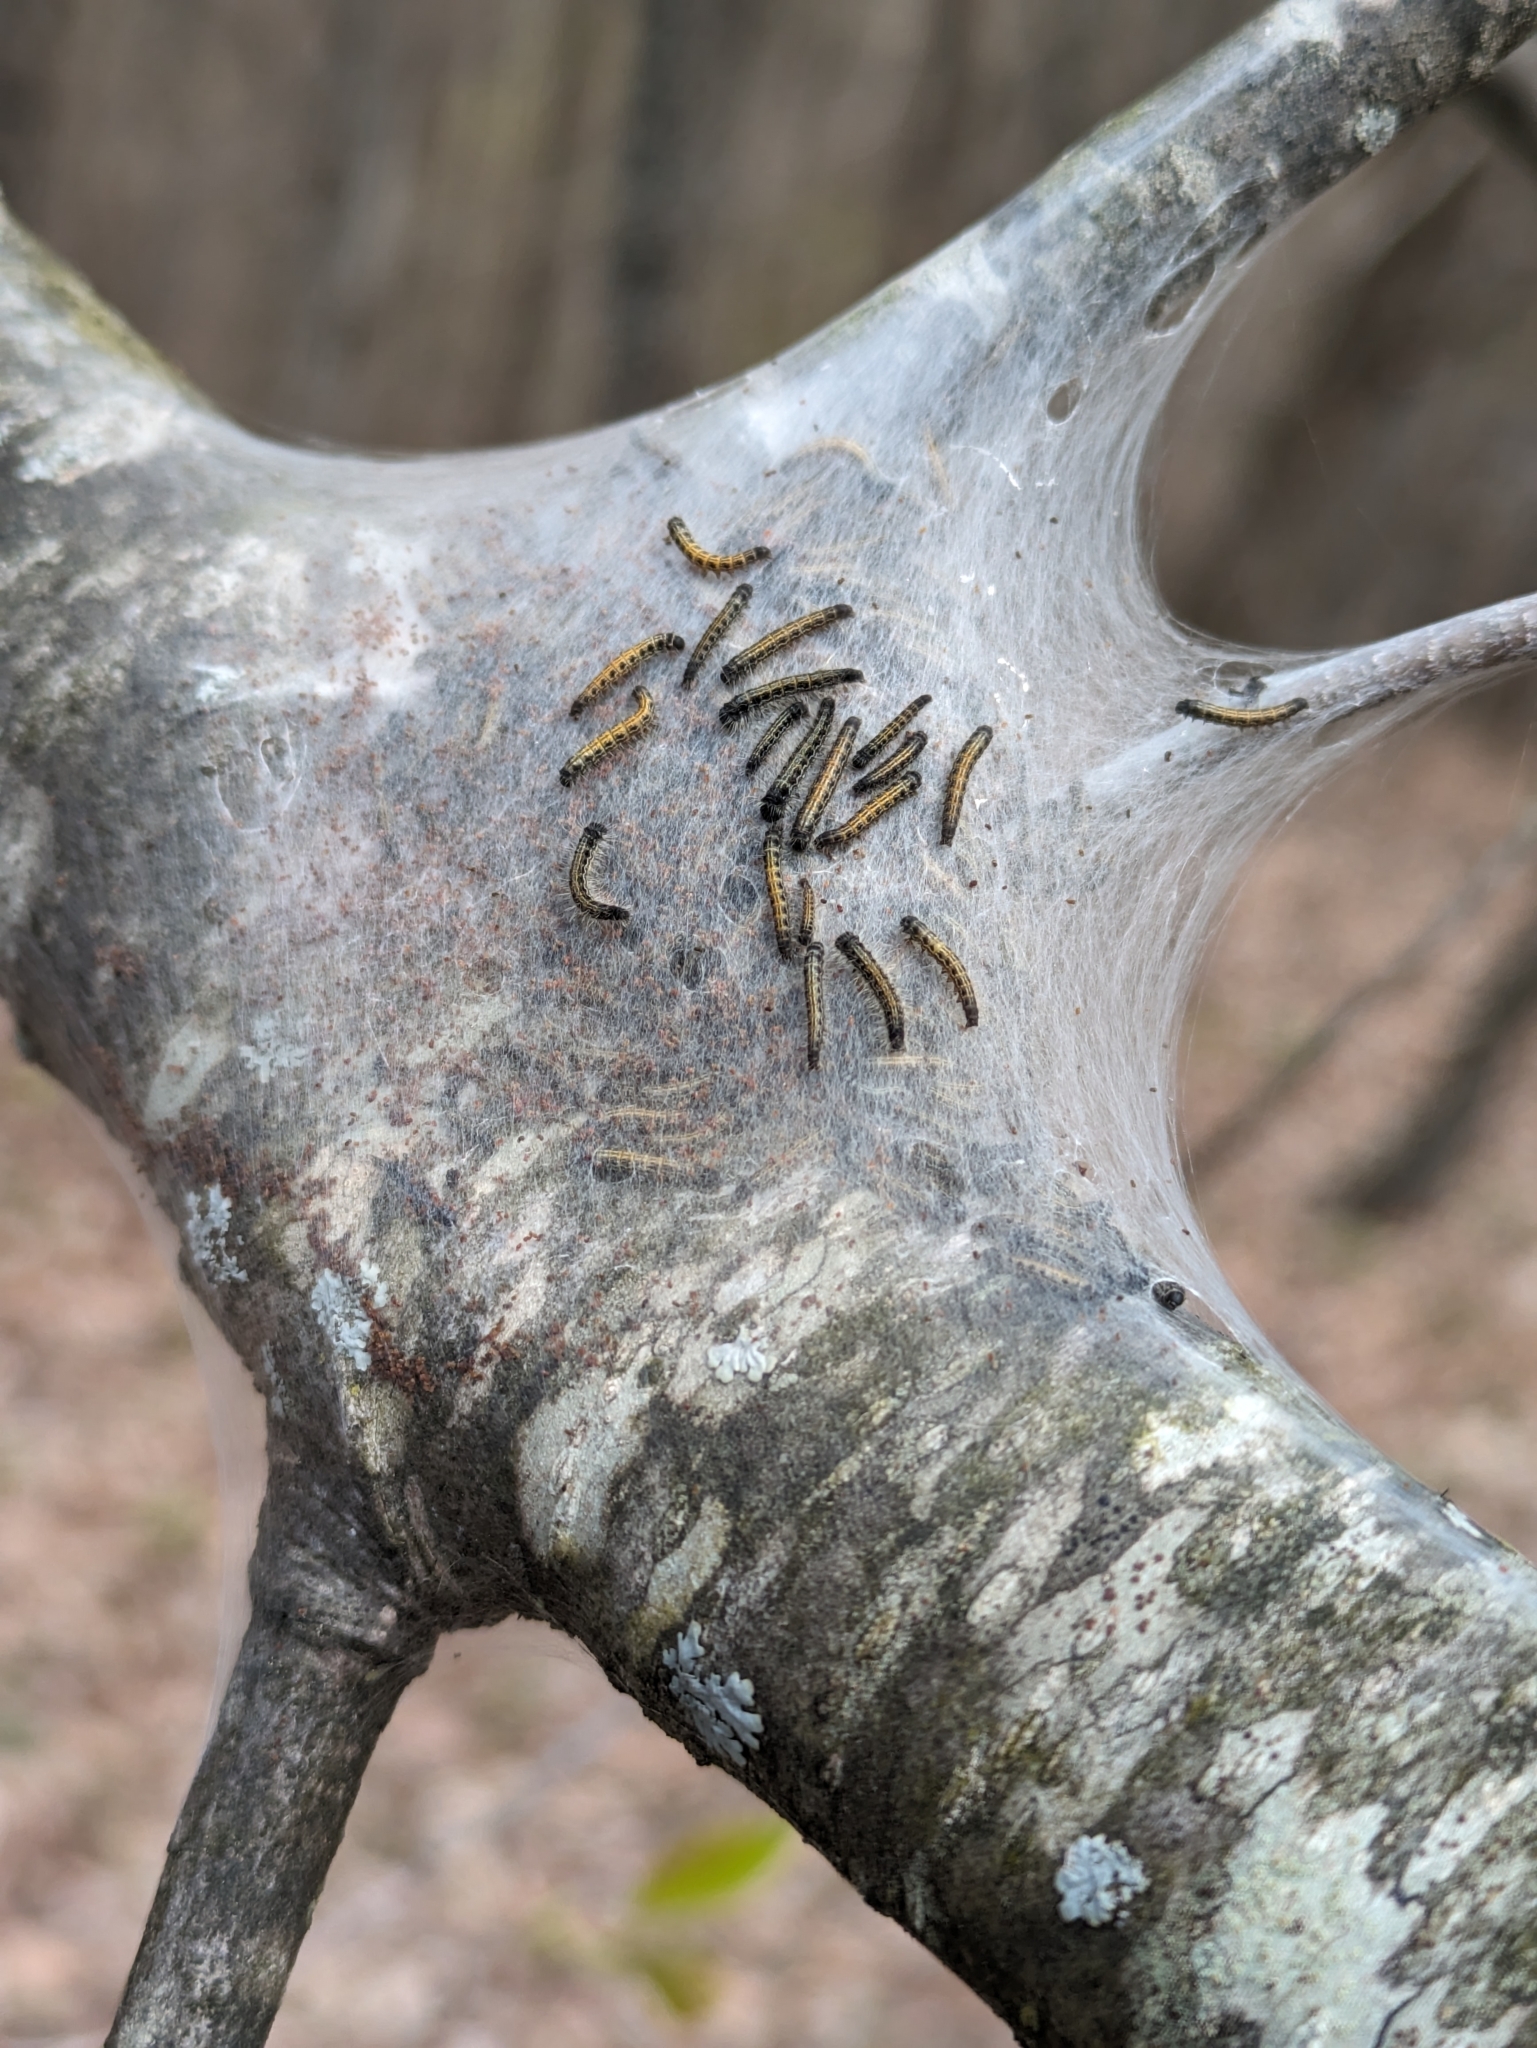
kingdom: Animalia
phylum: Arthropoda
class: Insecta
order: Lepidoptera
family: Lasiocampidae
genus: Malacosoma
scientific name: Malacosoma americana
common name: Eastern tent caterpillar moth
